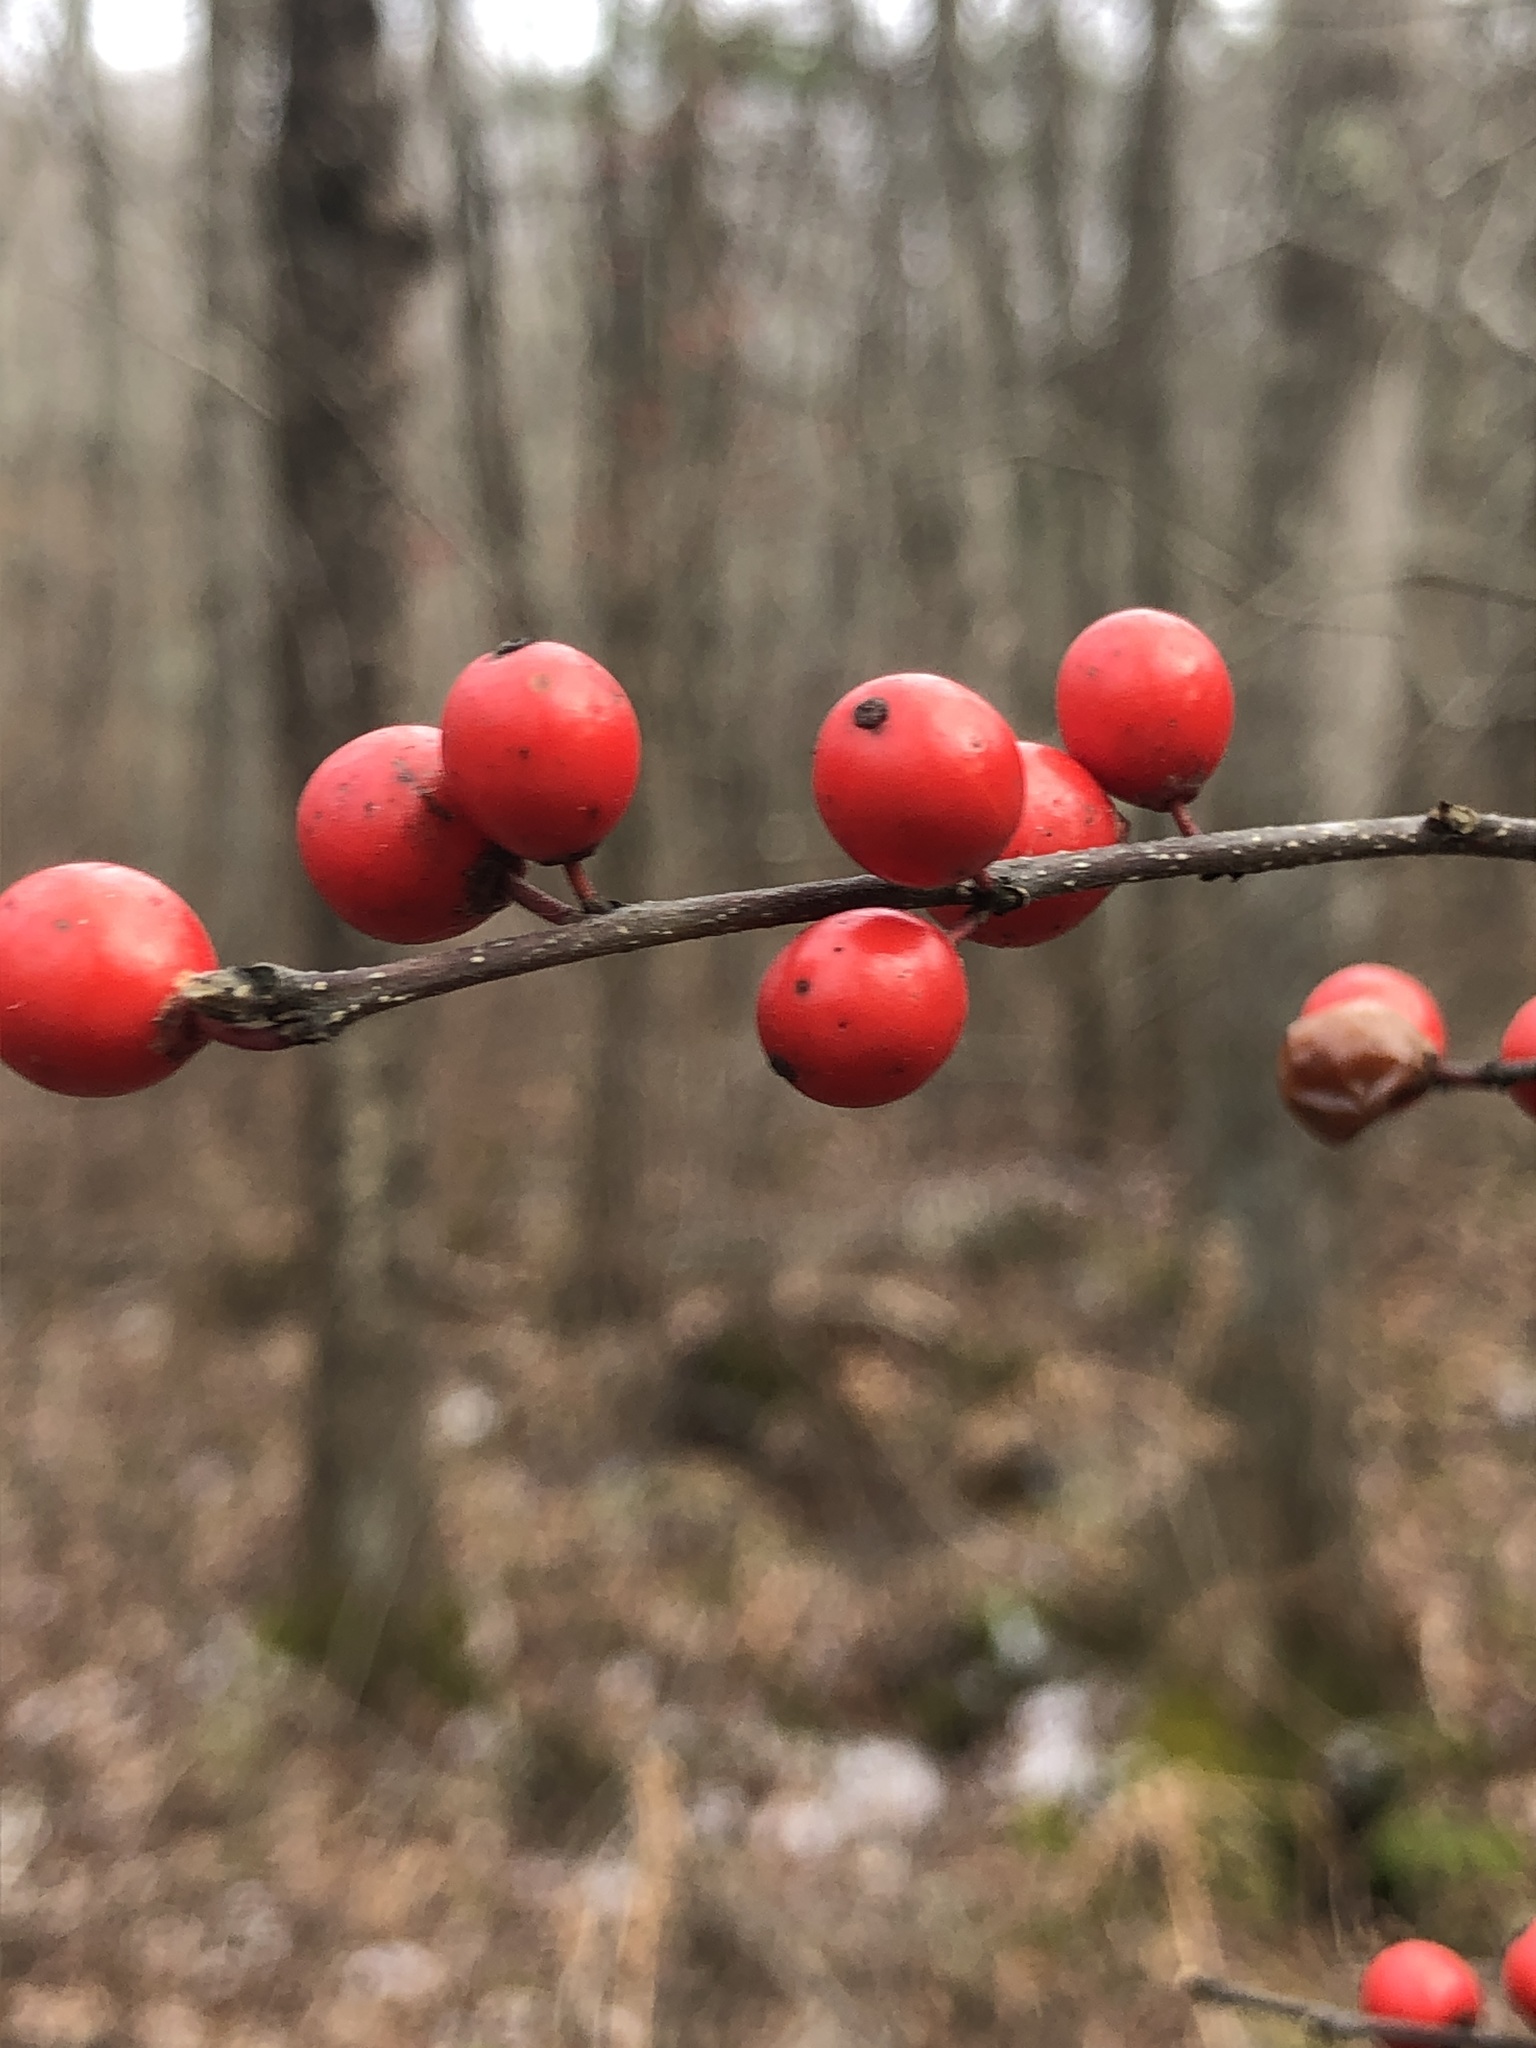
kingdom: Plantae
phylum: Tracheophyta
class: Magnoliopsida
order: Aquifoliales
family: Aquifoliaceae
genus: Ilex
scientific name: Ilex verticillata
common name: Virginia winterberry
